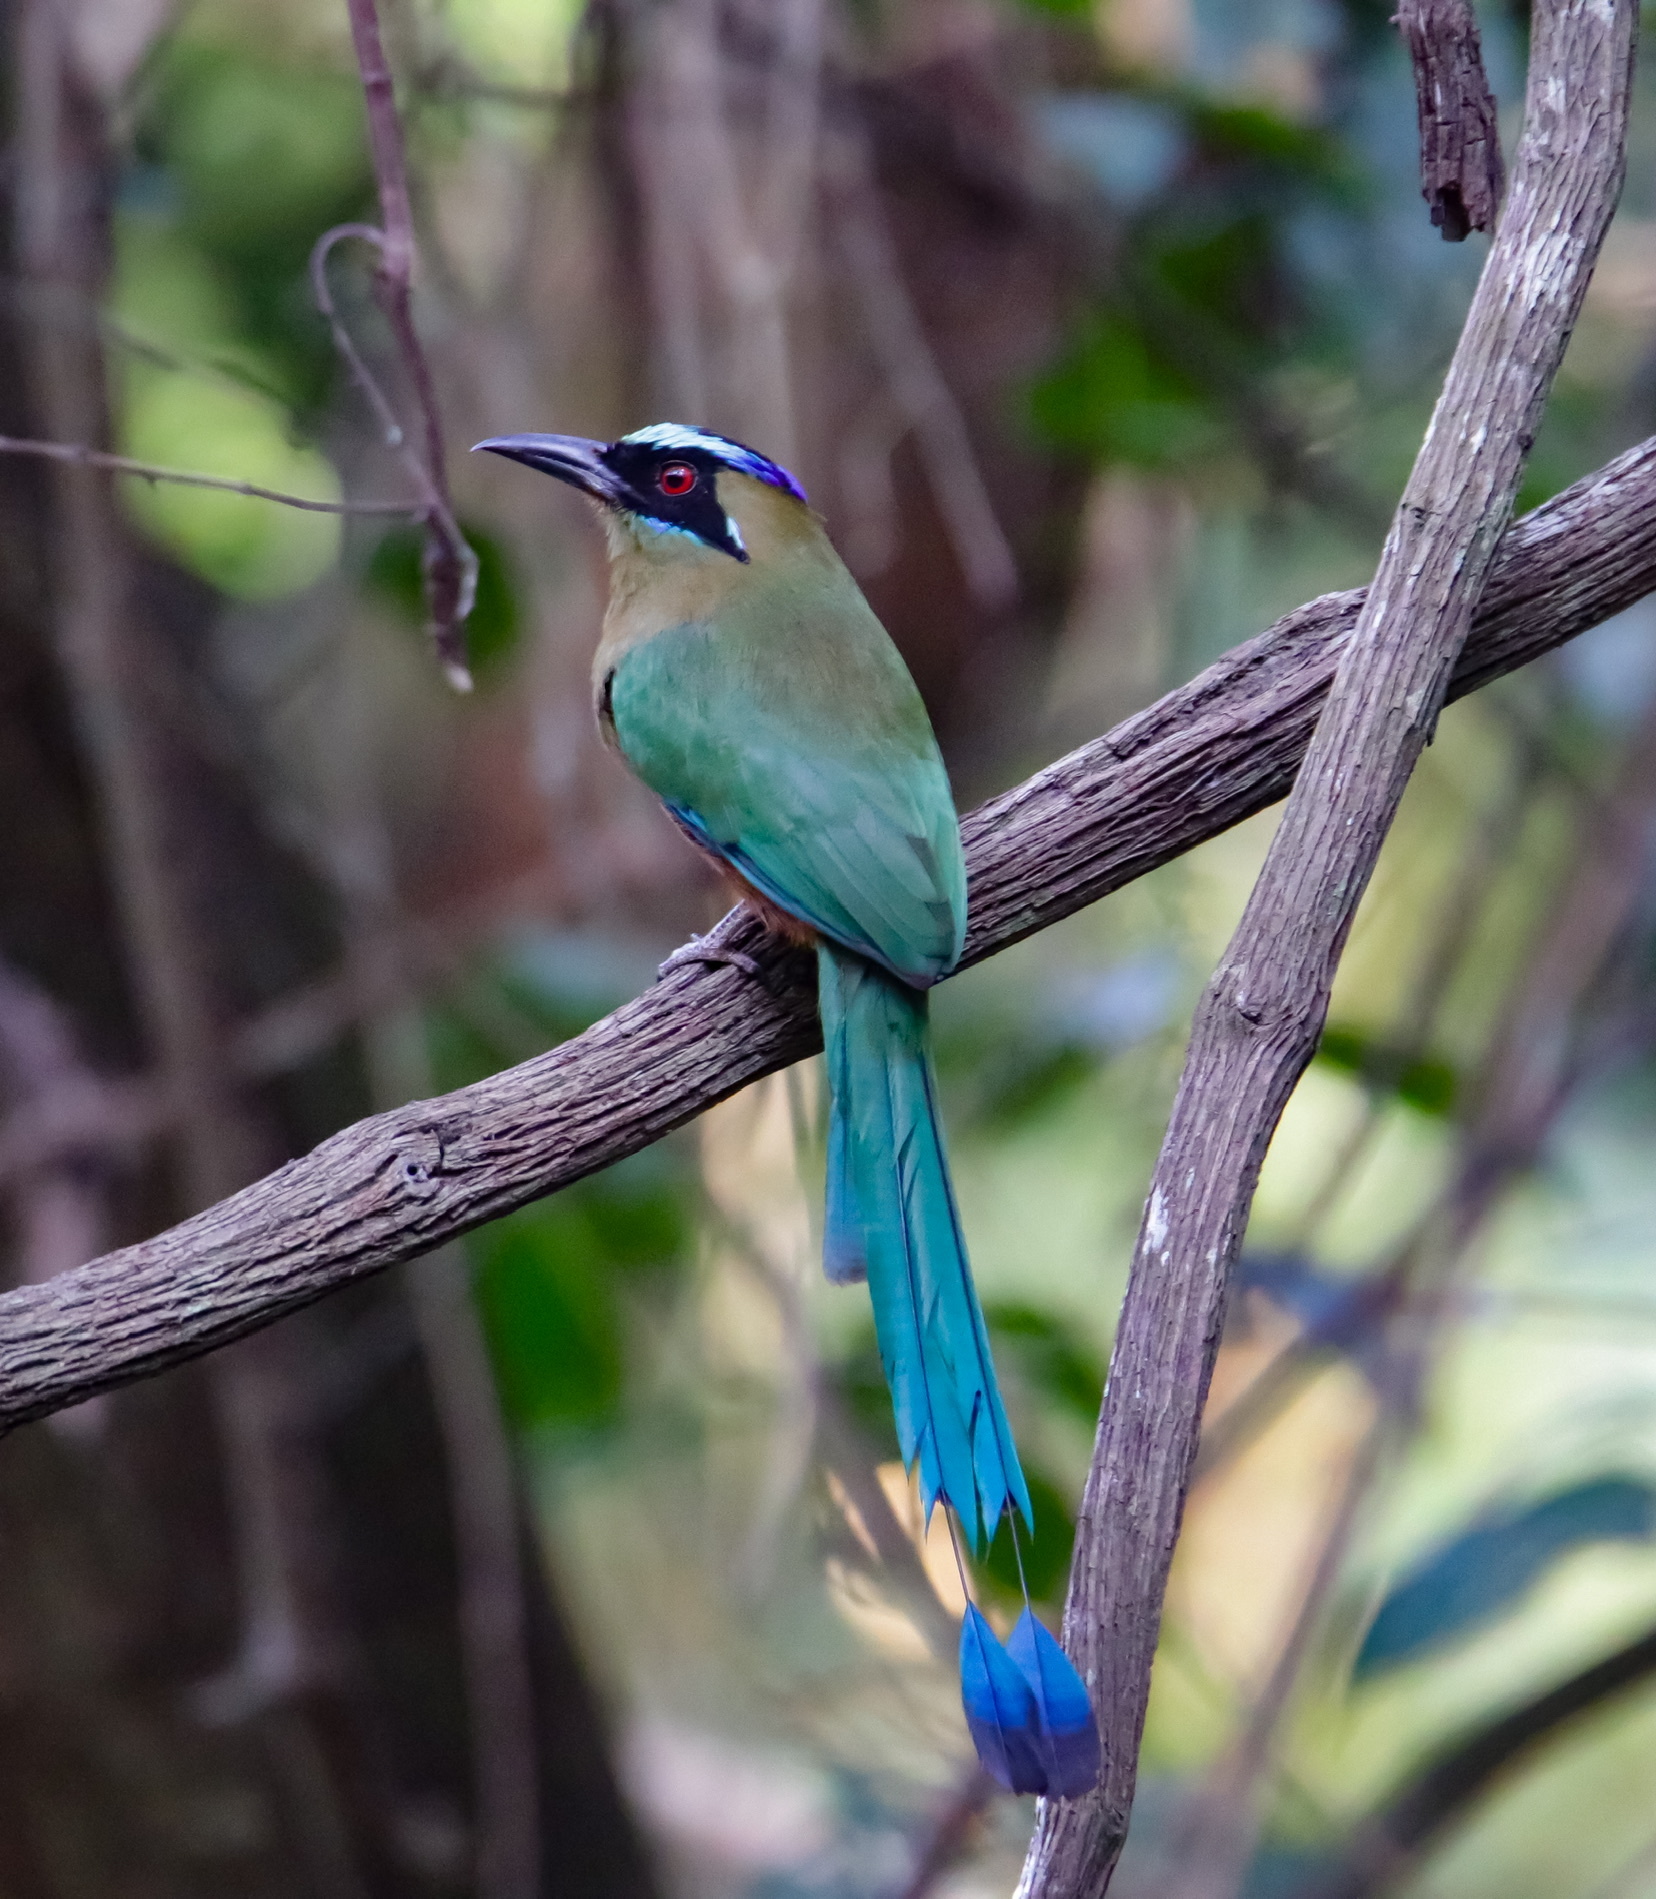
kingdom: Animalia
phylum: Chordata
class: Aves
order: Coraciiformes
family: Momotidae
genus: Momotus
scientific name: Momotus subrufescens
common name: Whooping motmot
